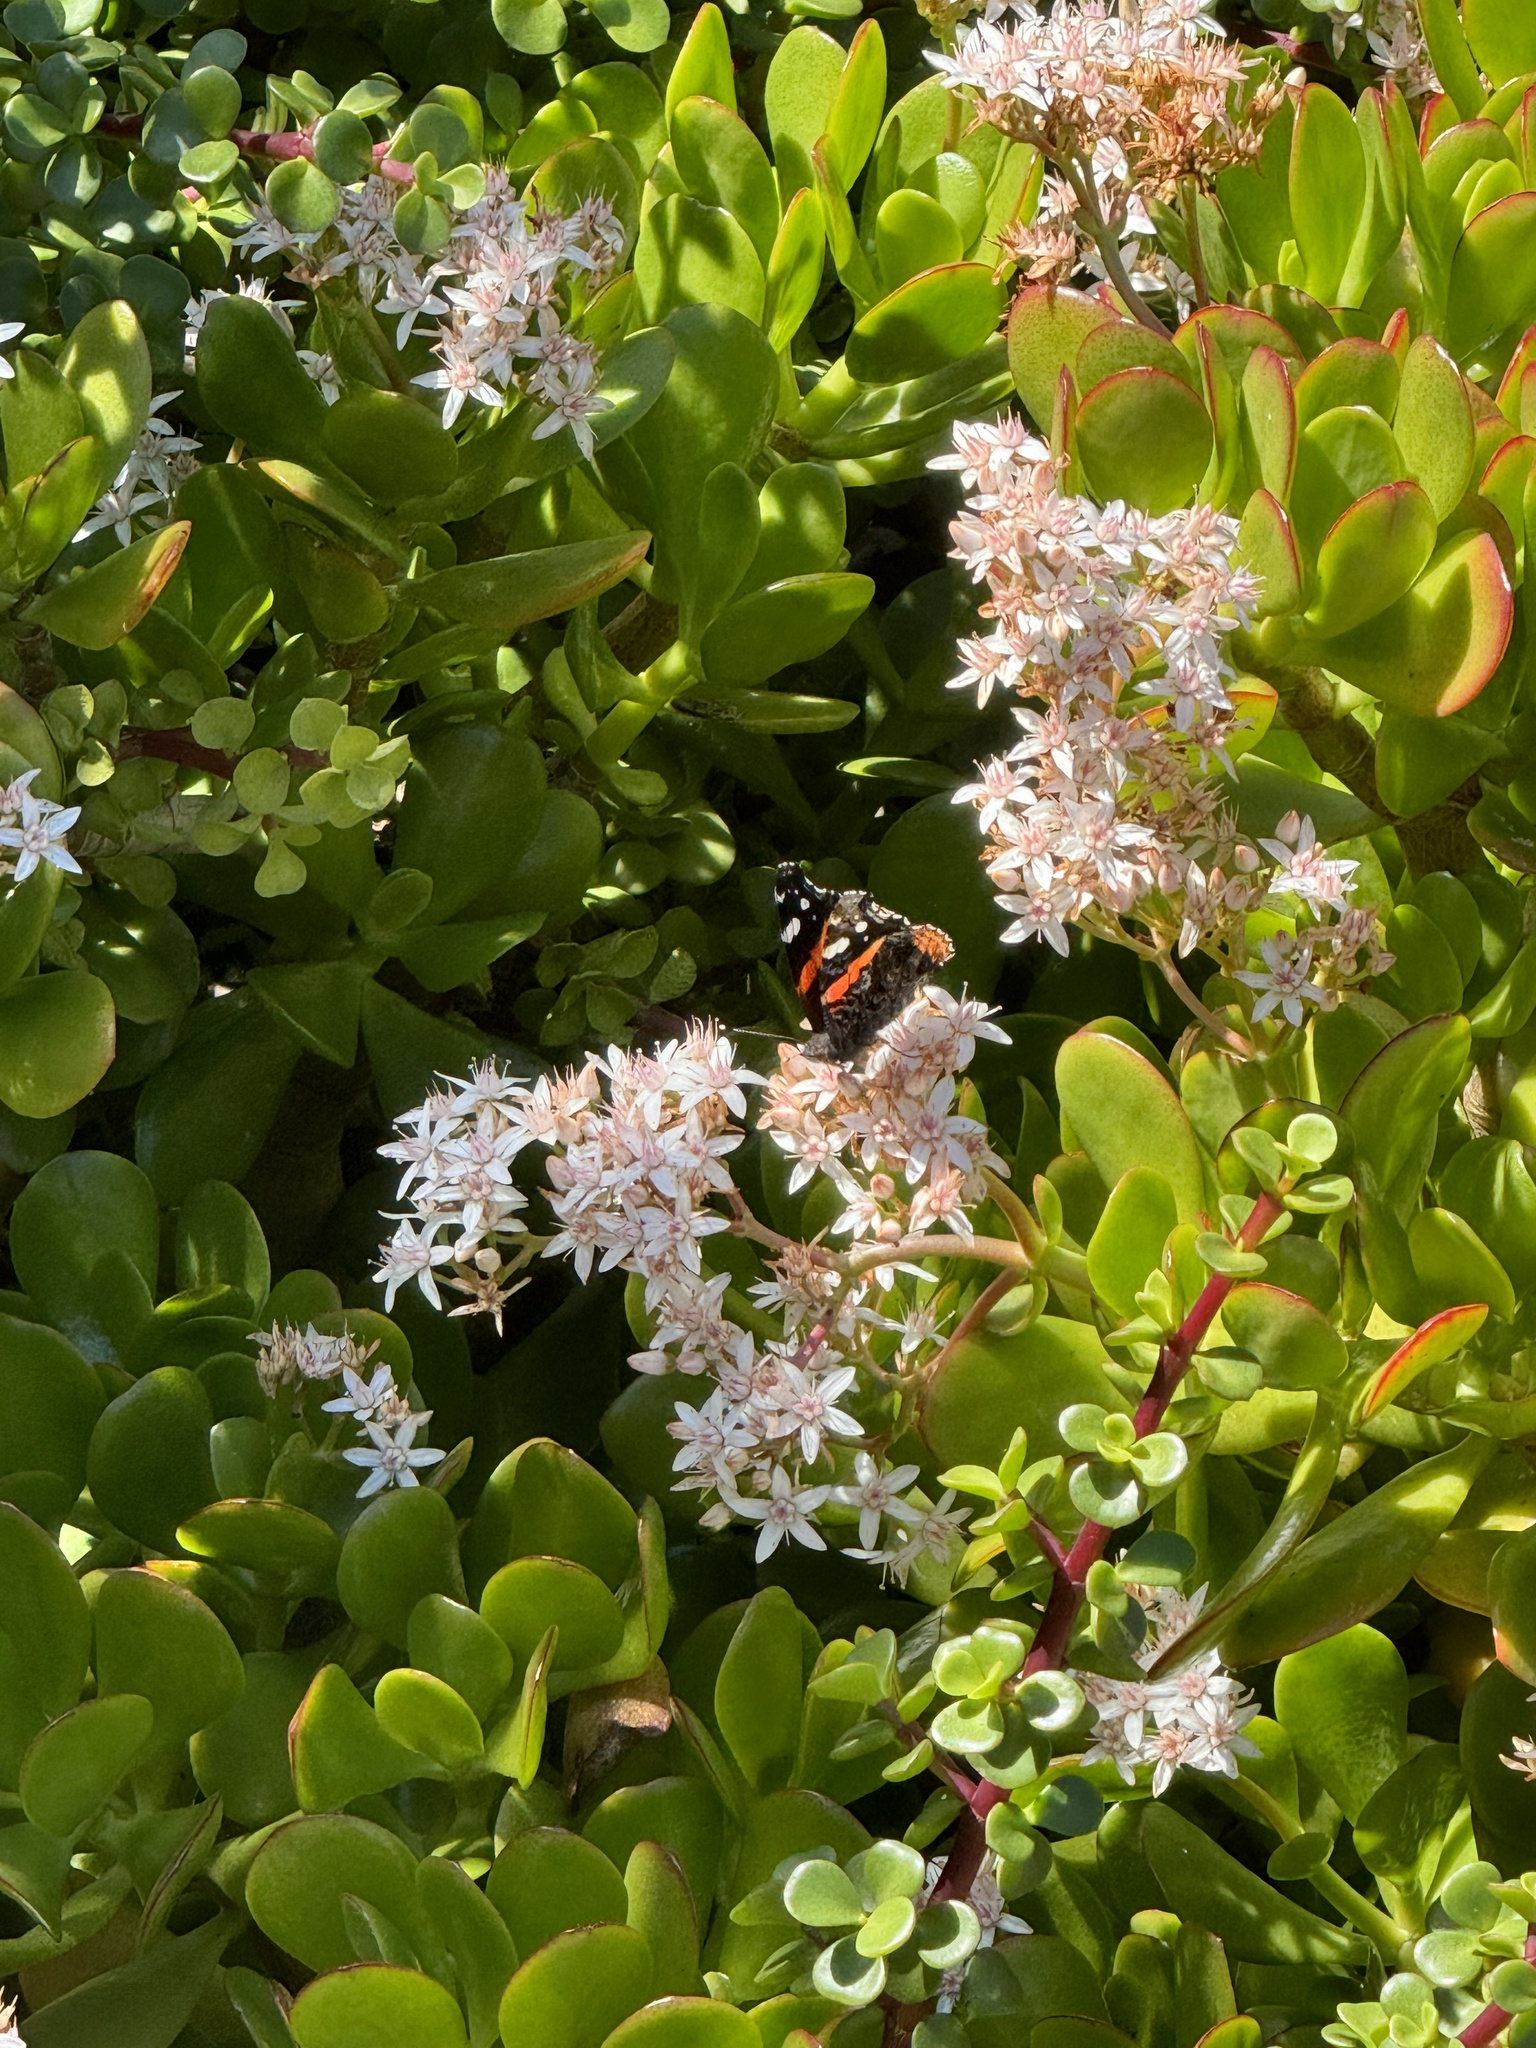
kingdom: Animalia
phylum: Arthropoda
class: Insecta
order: Lepidoptera
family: Nymphalidae
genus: Vanessa
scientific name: Vanessa atalanta
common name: Red admiral
